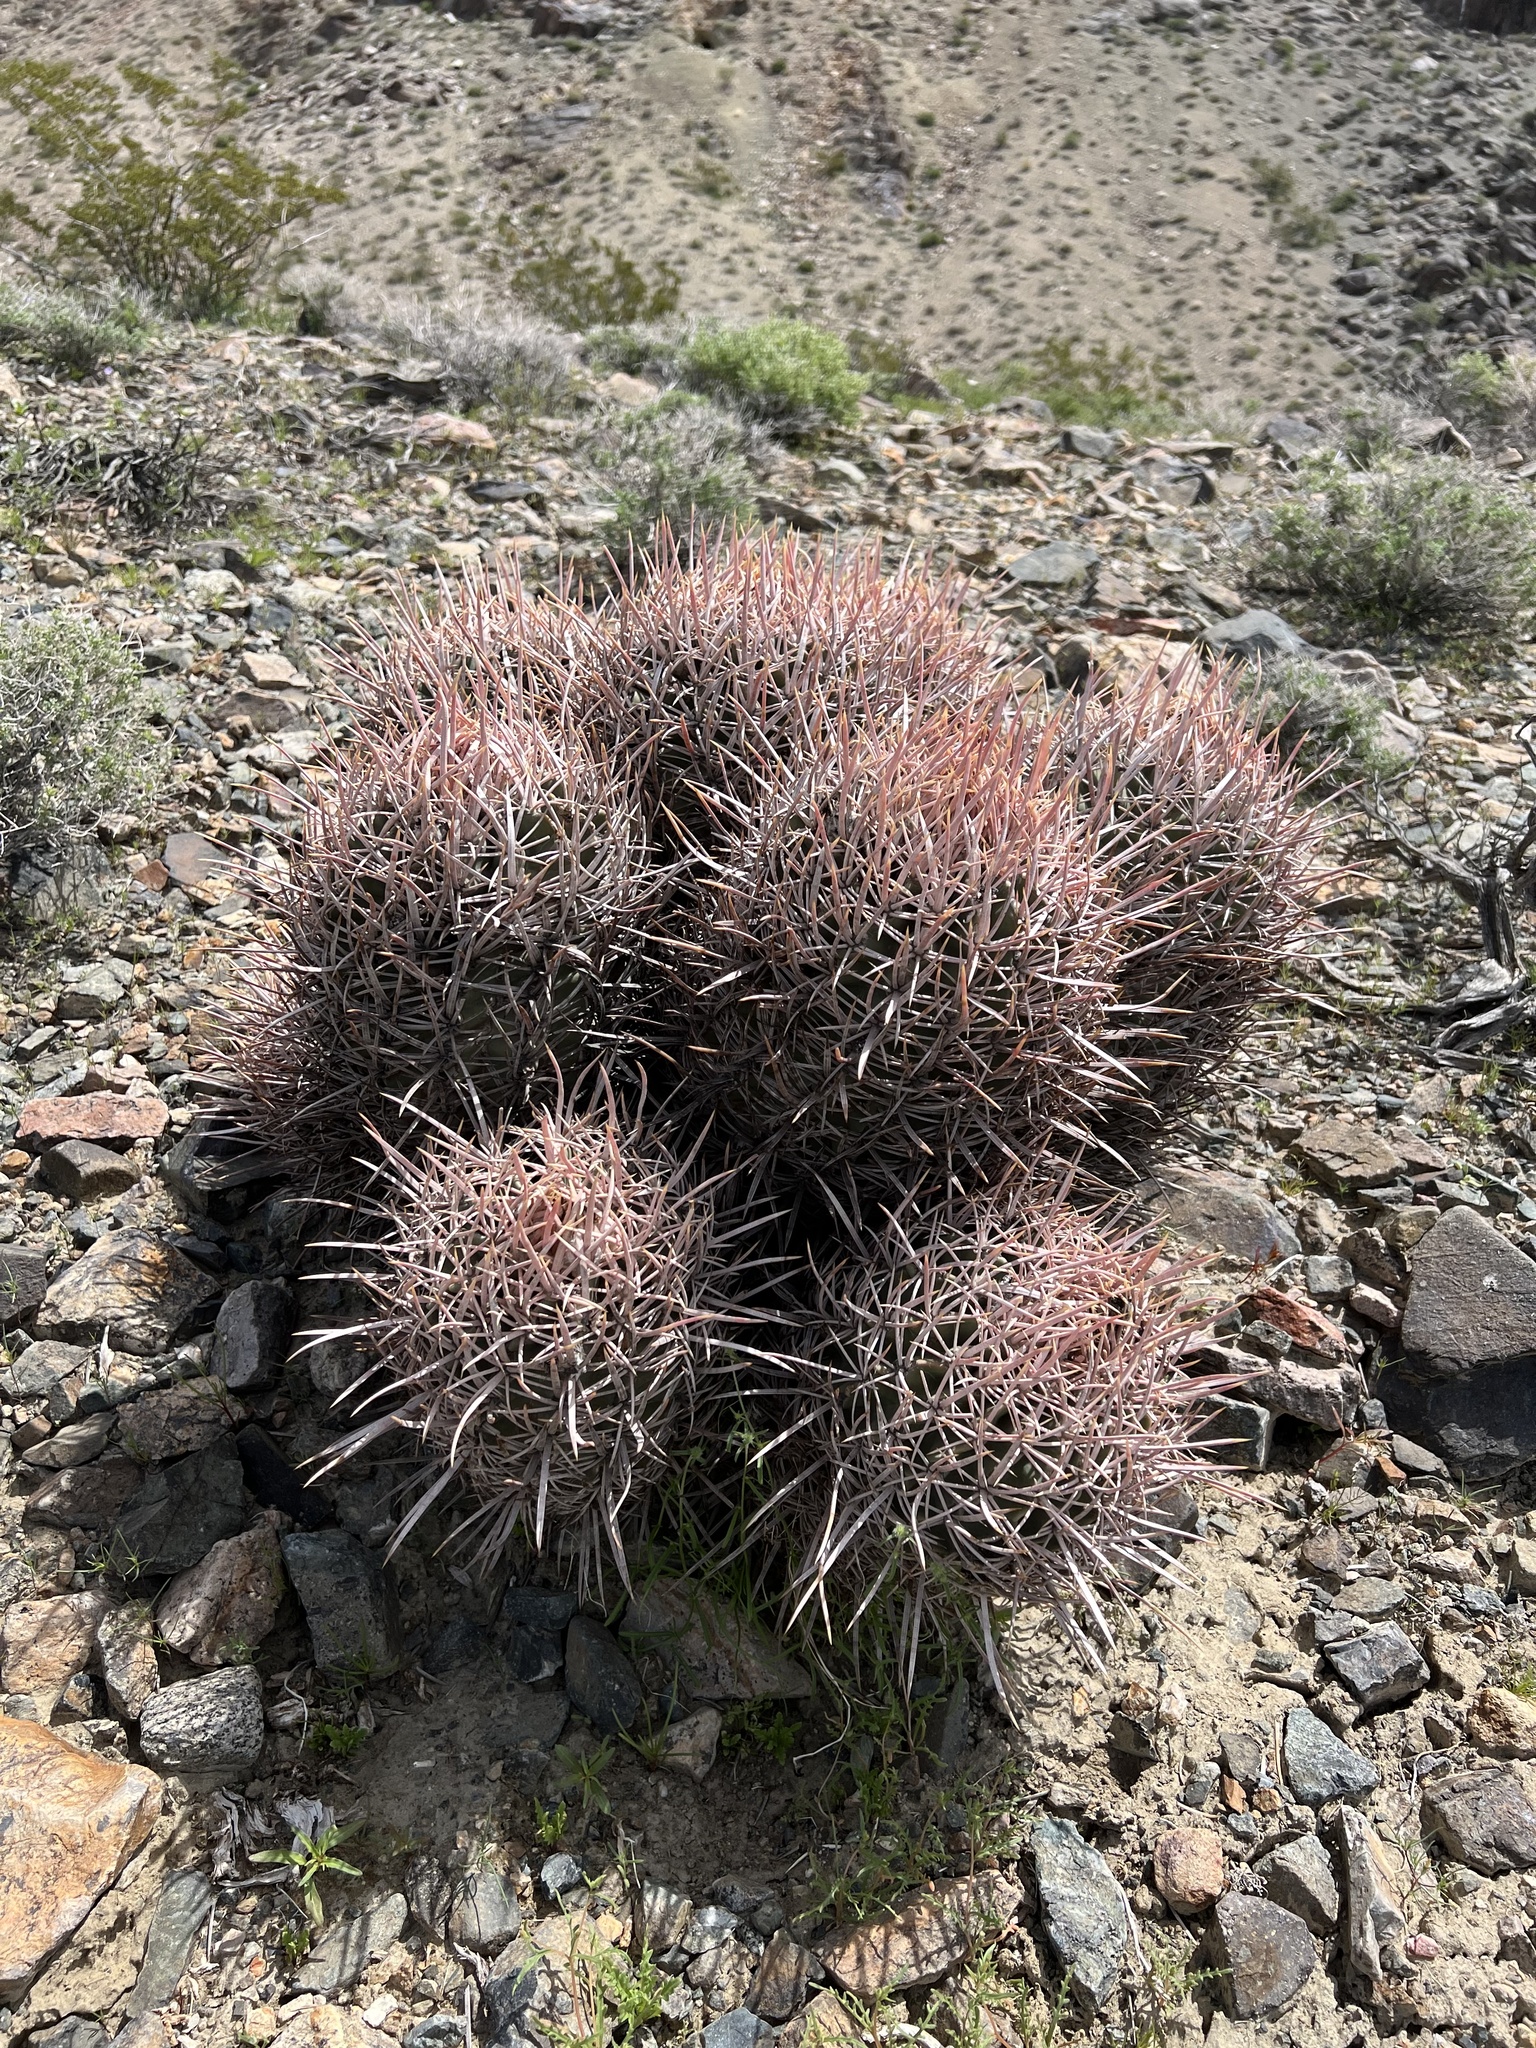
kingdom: Plantae
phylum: Tracheophyta
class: Magnoliopsida
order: Caryophyllales
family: Cactaceae
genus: Echinocactus
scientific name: Echinocactus polycephalus
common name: Cottontop cactus
